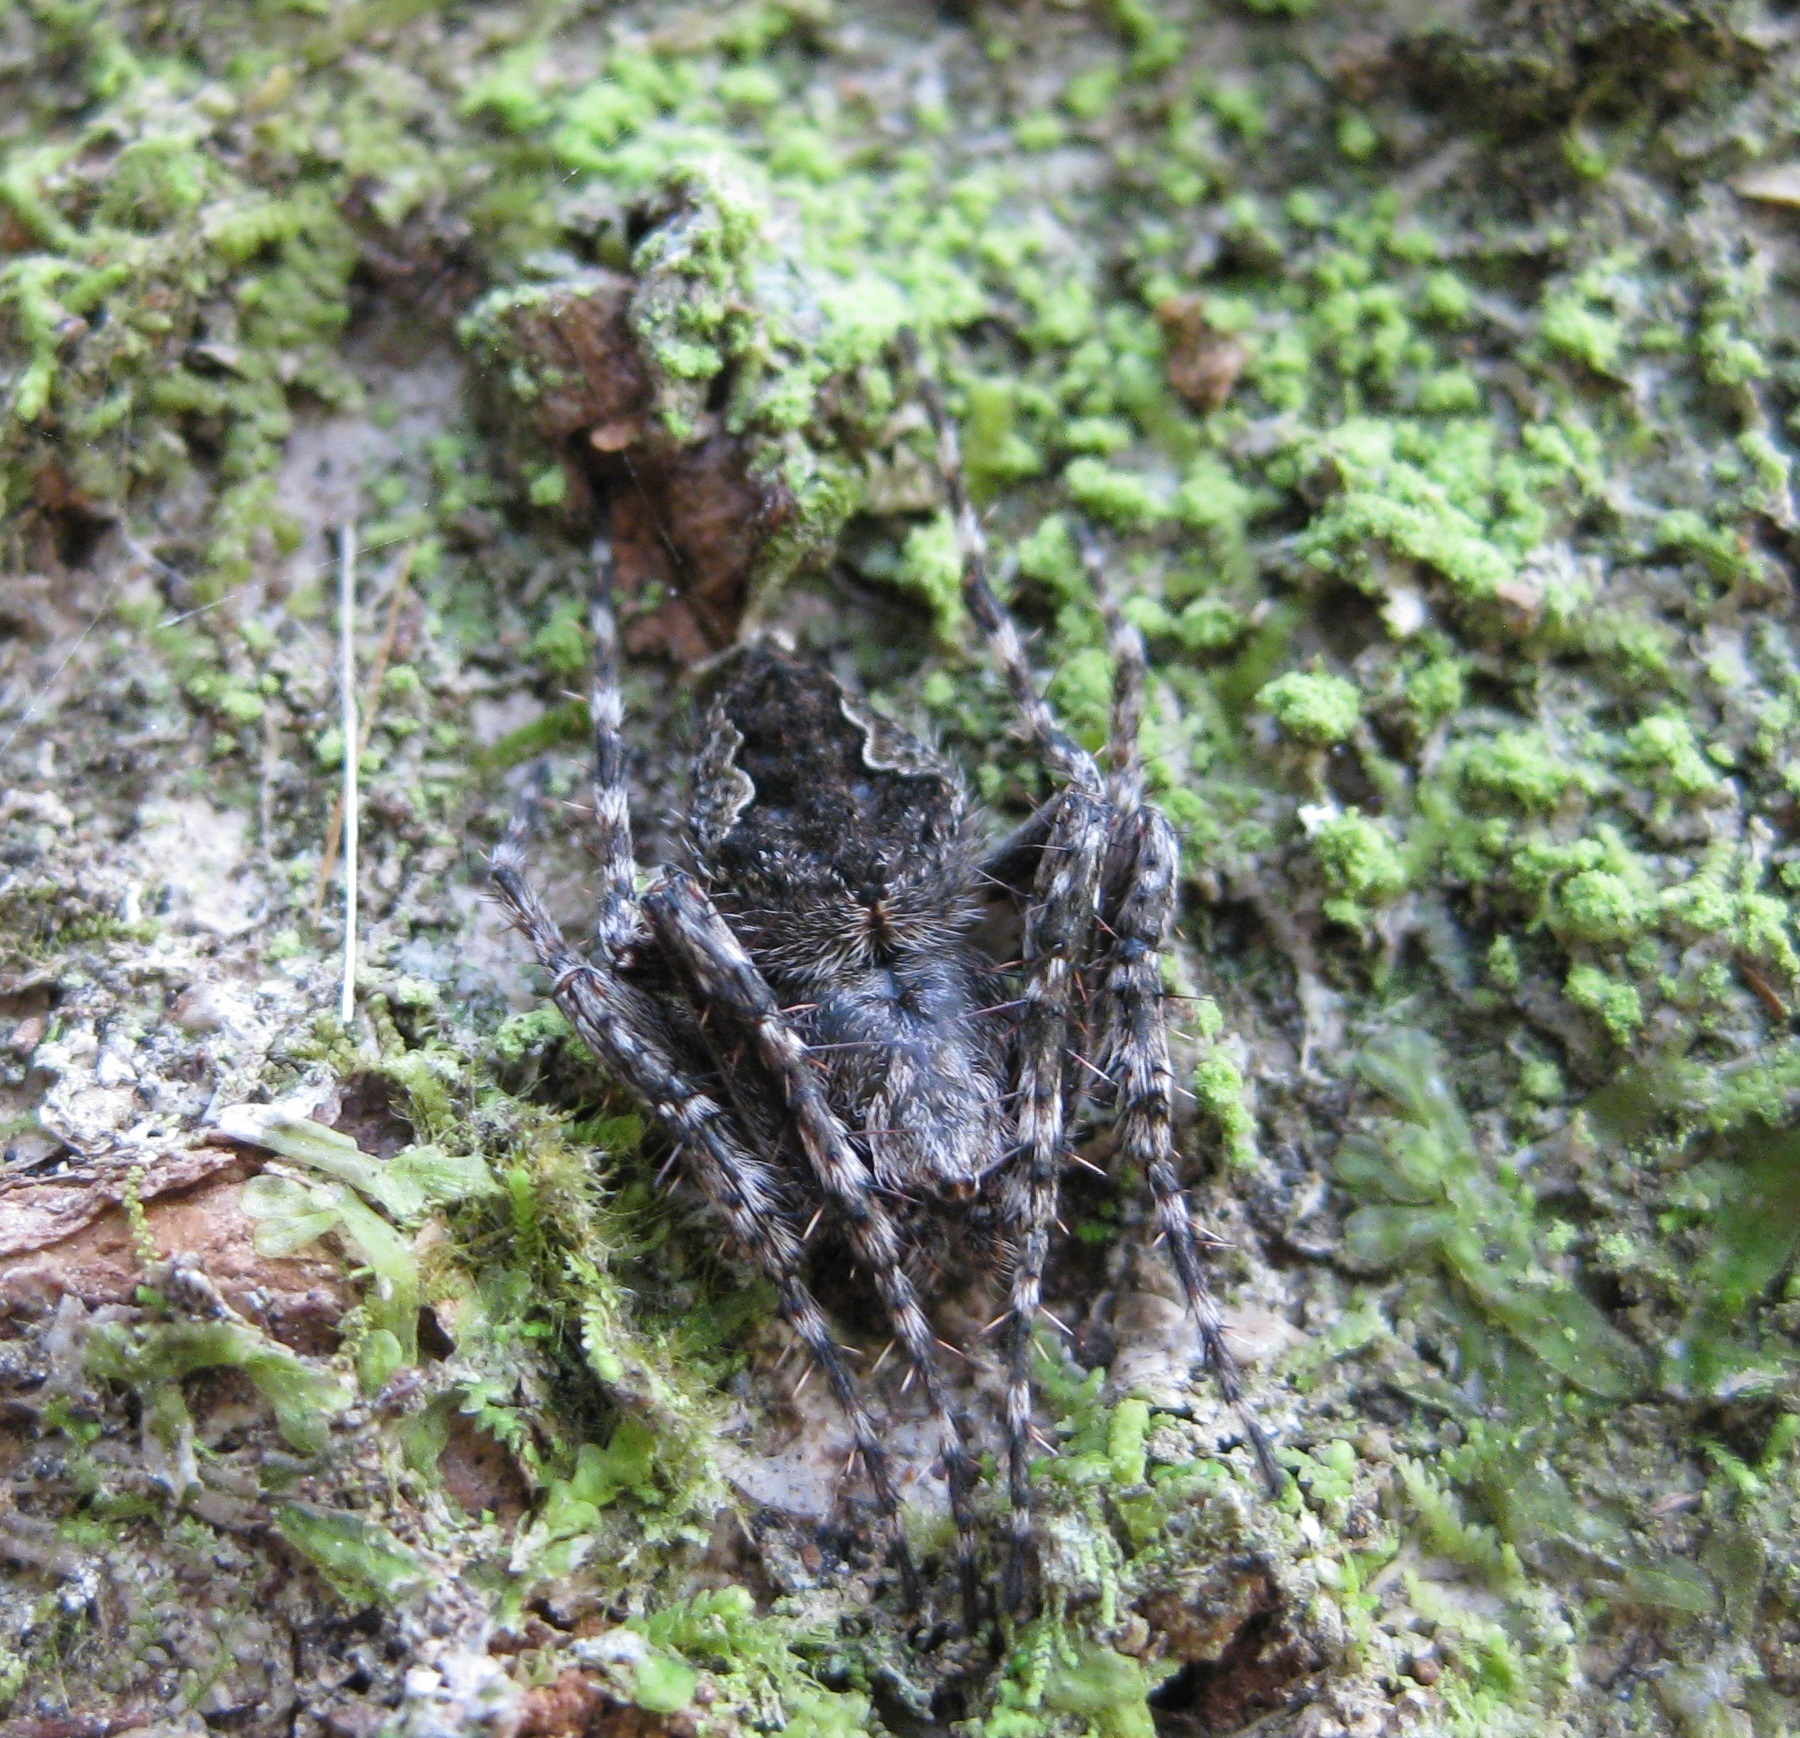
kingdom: Animalia
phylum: Arthropoda
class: Arachnida
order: Araneae
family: Araneidae
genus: Eriophora
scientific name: Eriophora pustulosa
